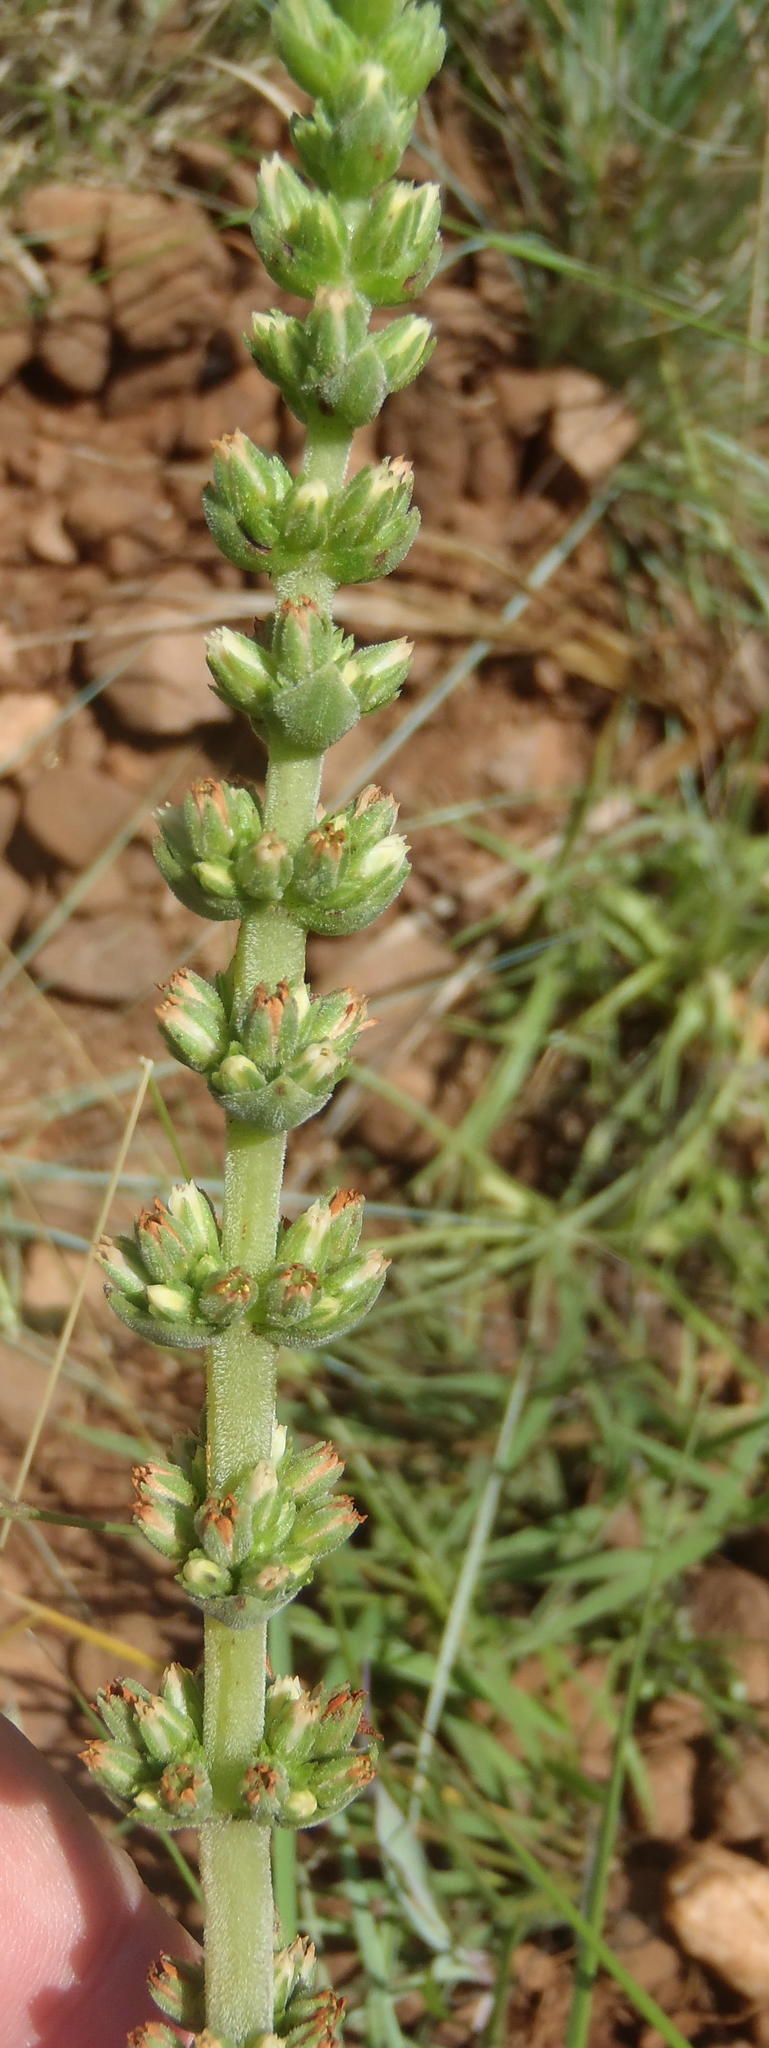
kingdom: Plantae
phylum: Tracheophyta
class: Magnoliopsida
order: Saxifragales
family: Crassulaceae
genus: Crassula
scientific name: Crassula nodulosa
